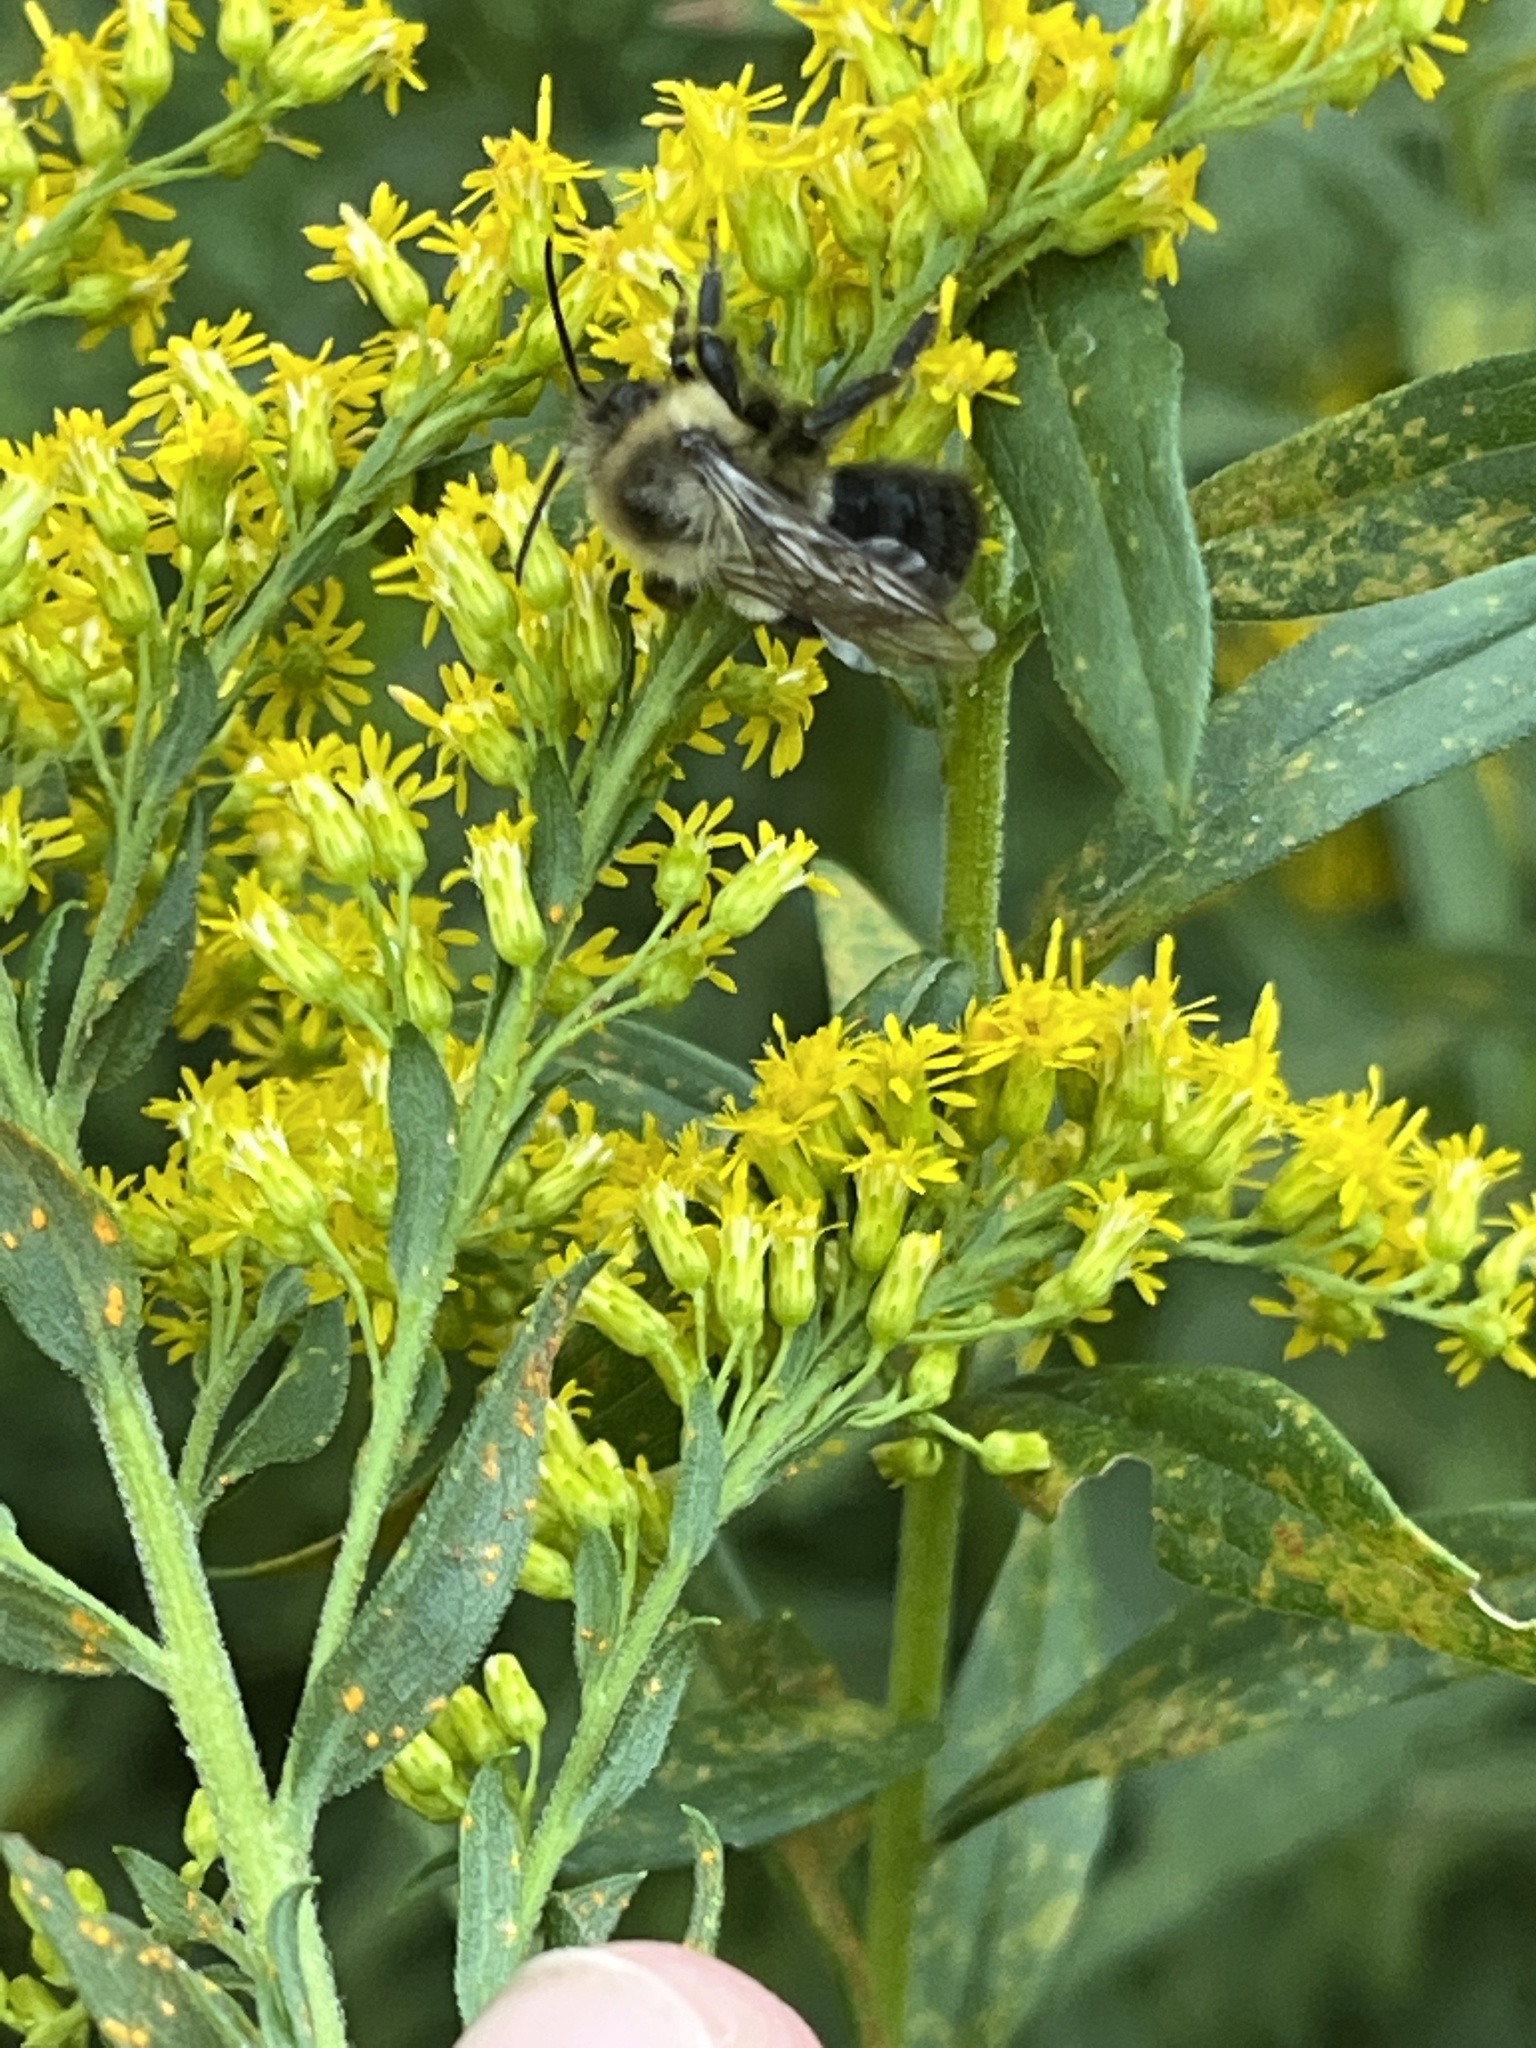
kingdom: Animalia
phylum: Arthropoda
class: Insecta
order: Hymenoptera
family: Apidae
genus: Bombus
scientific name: Bombus impatiens
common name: Common eastern bumble bee
